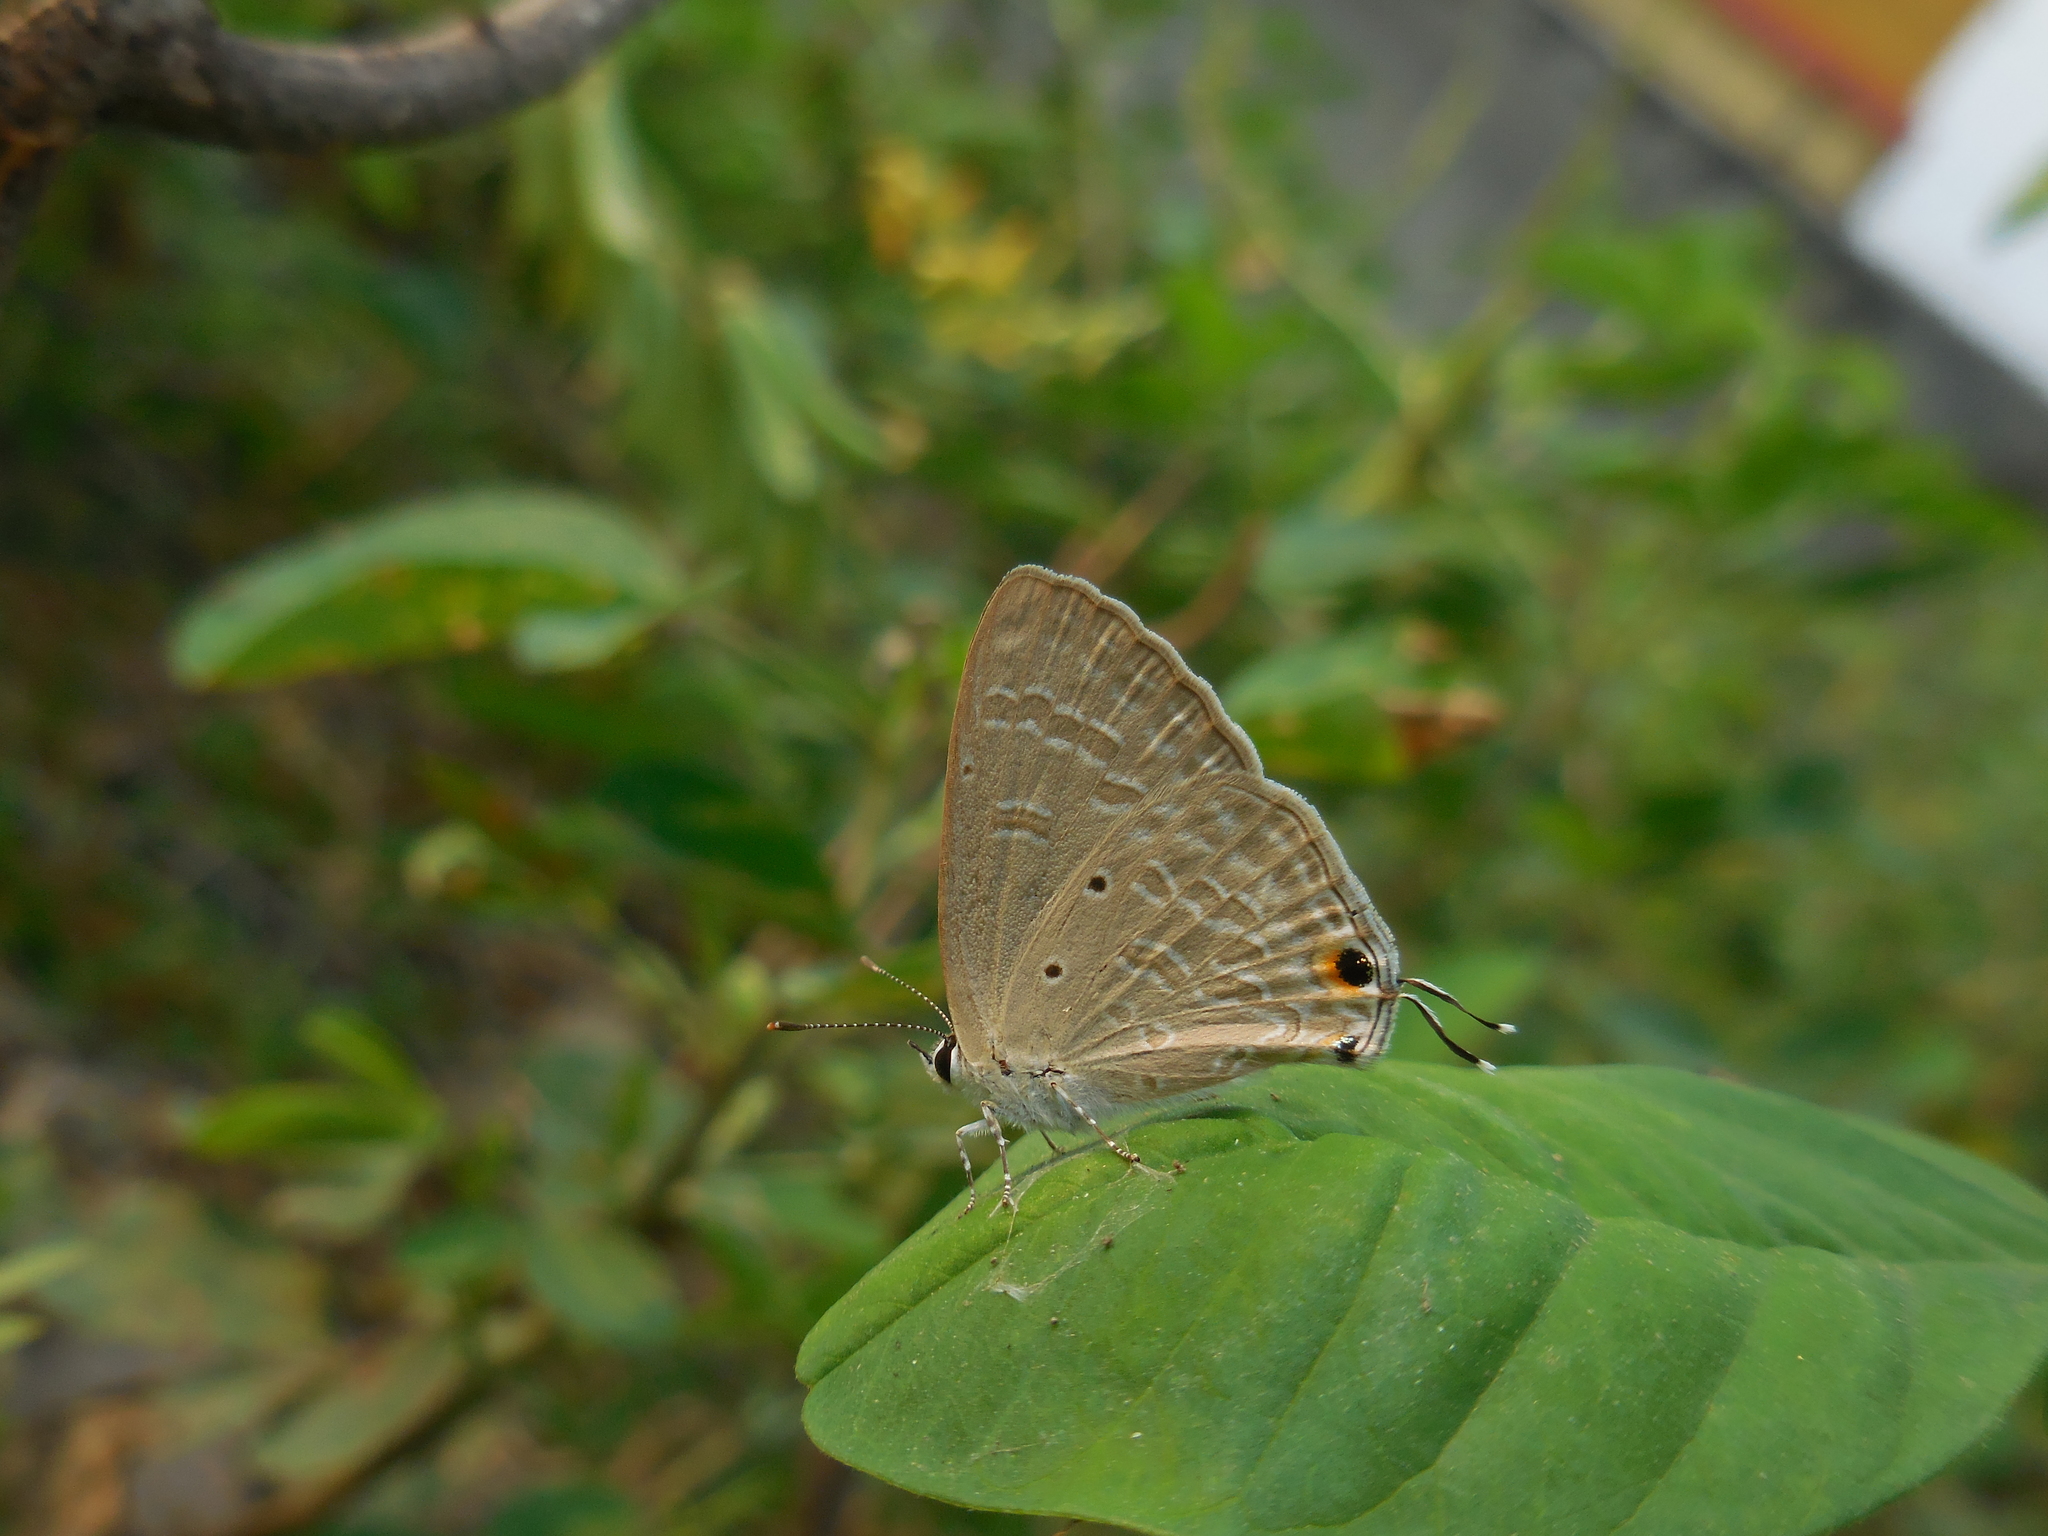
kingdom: Animalia
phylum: Arthropoda
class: Insecta
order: Lepidoptera
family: Lycaenidae
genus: Catochrysops
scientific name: Catochrysops strabo
